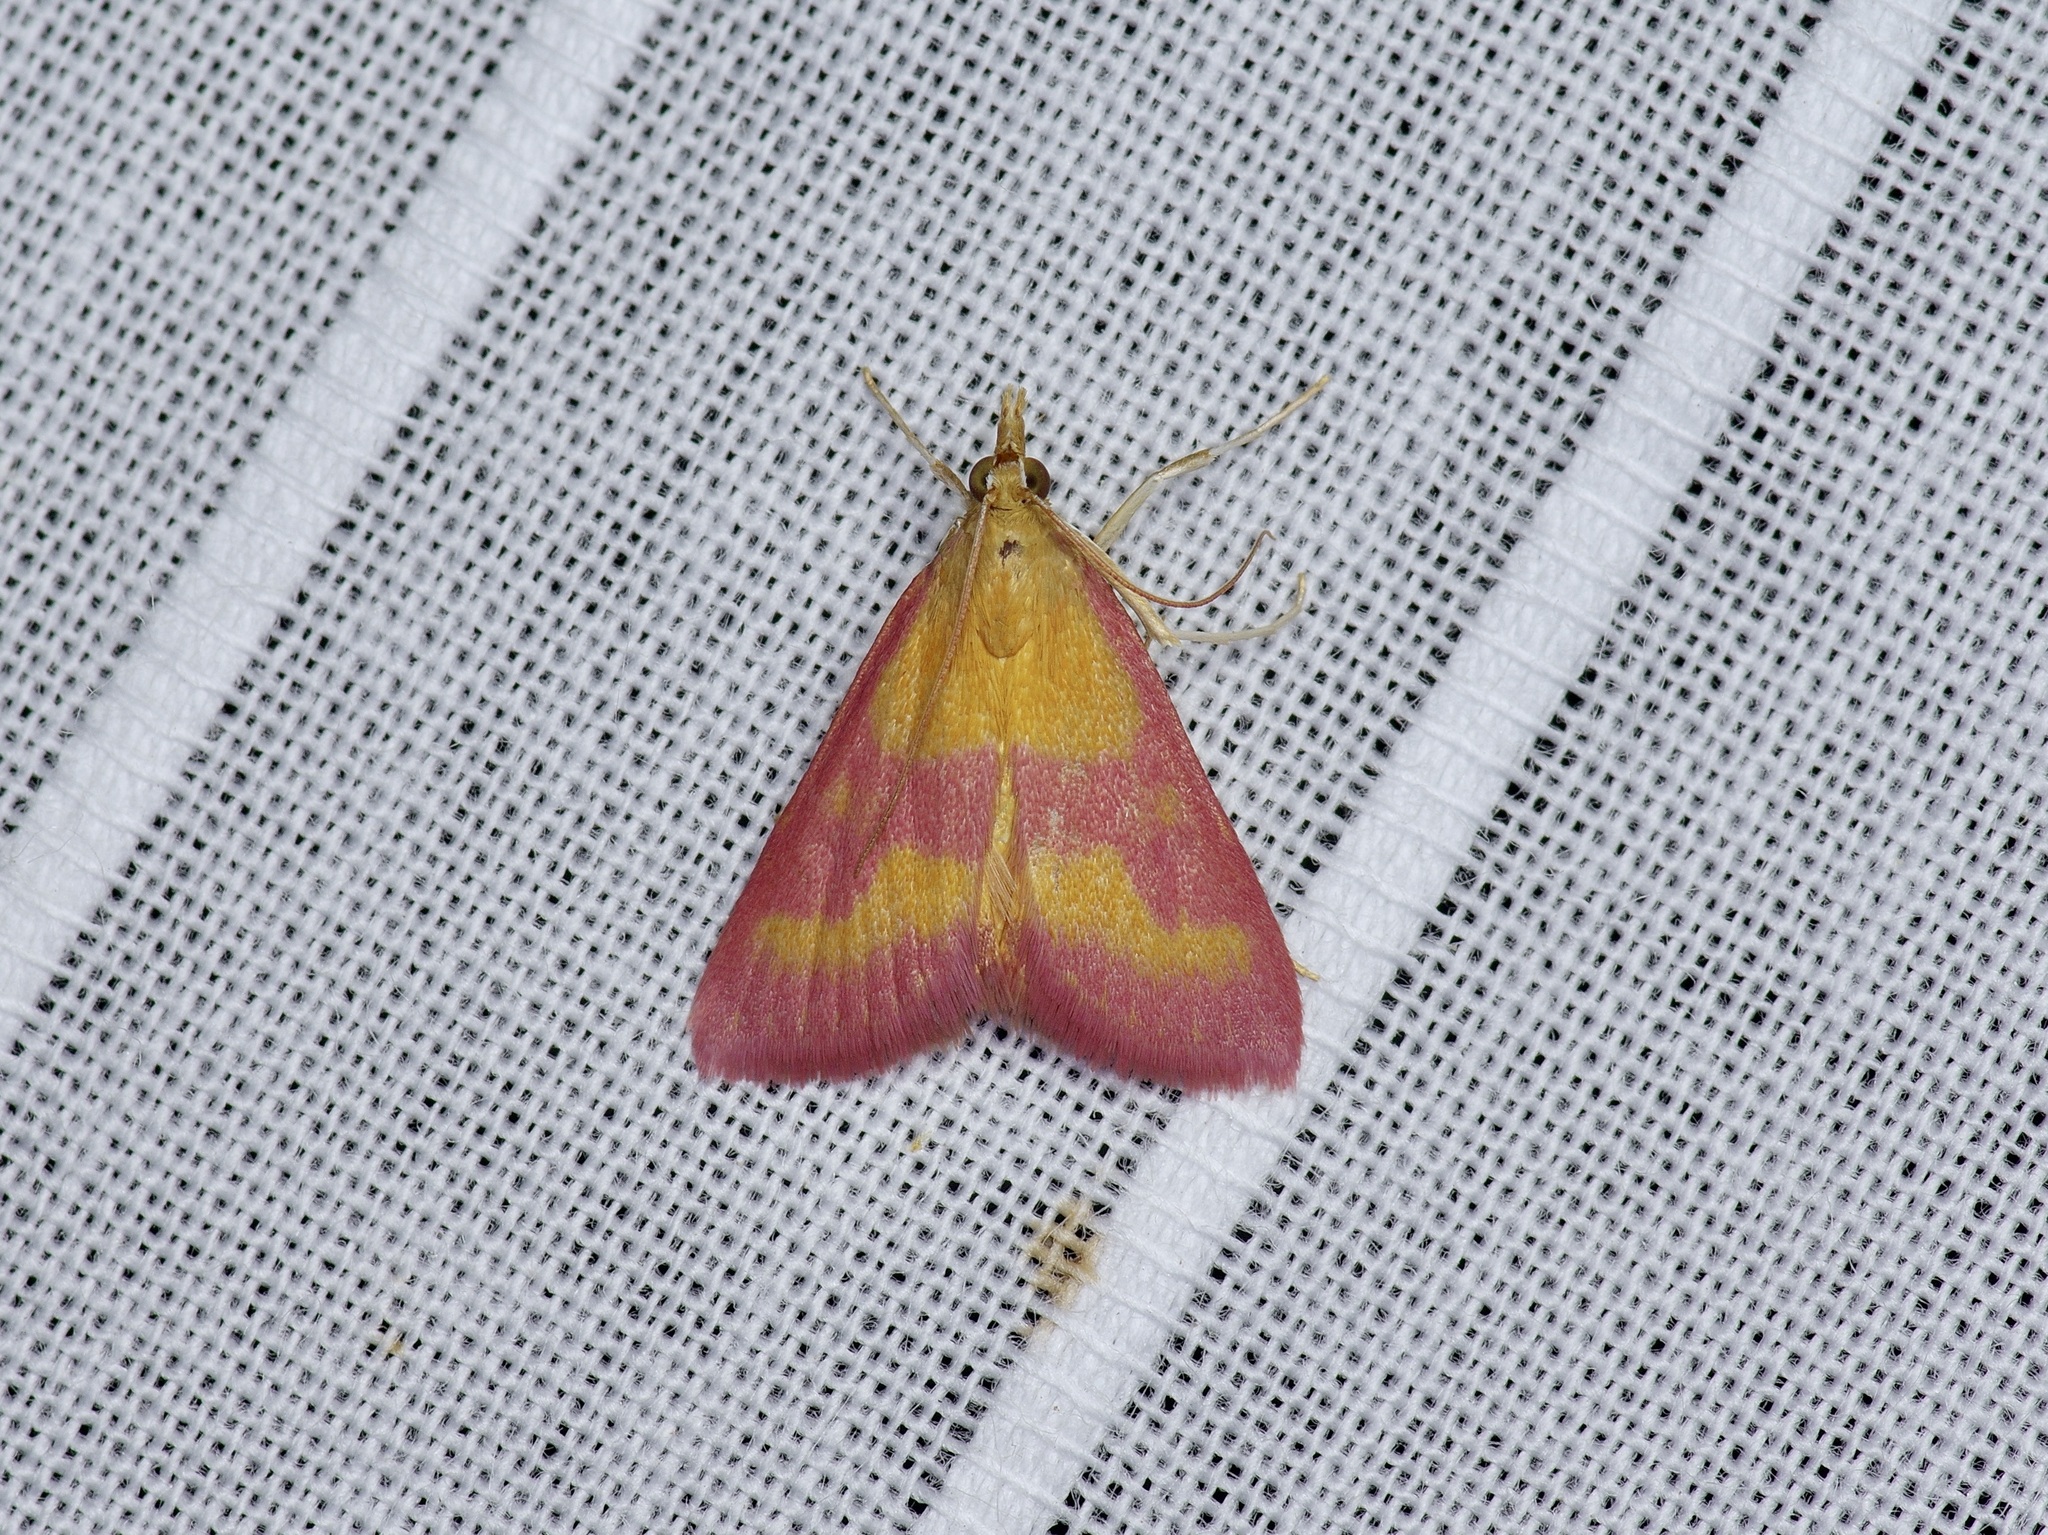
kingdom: Animalia
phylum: Arthropoda
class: Insecta
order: Lepidoptera
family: Crambidae
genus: Pyrausta
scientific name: Pyrausta laticlavia
